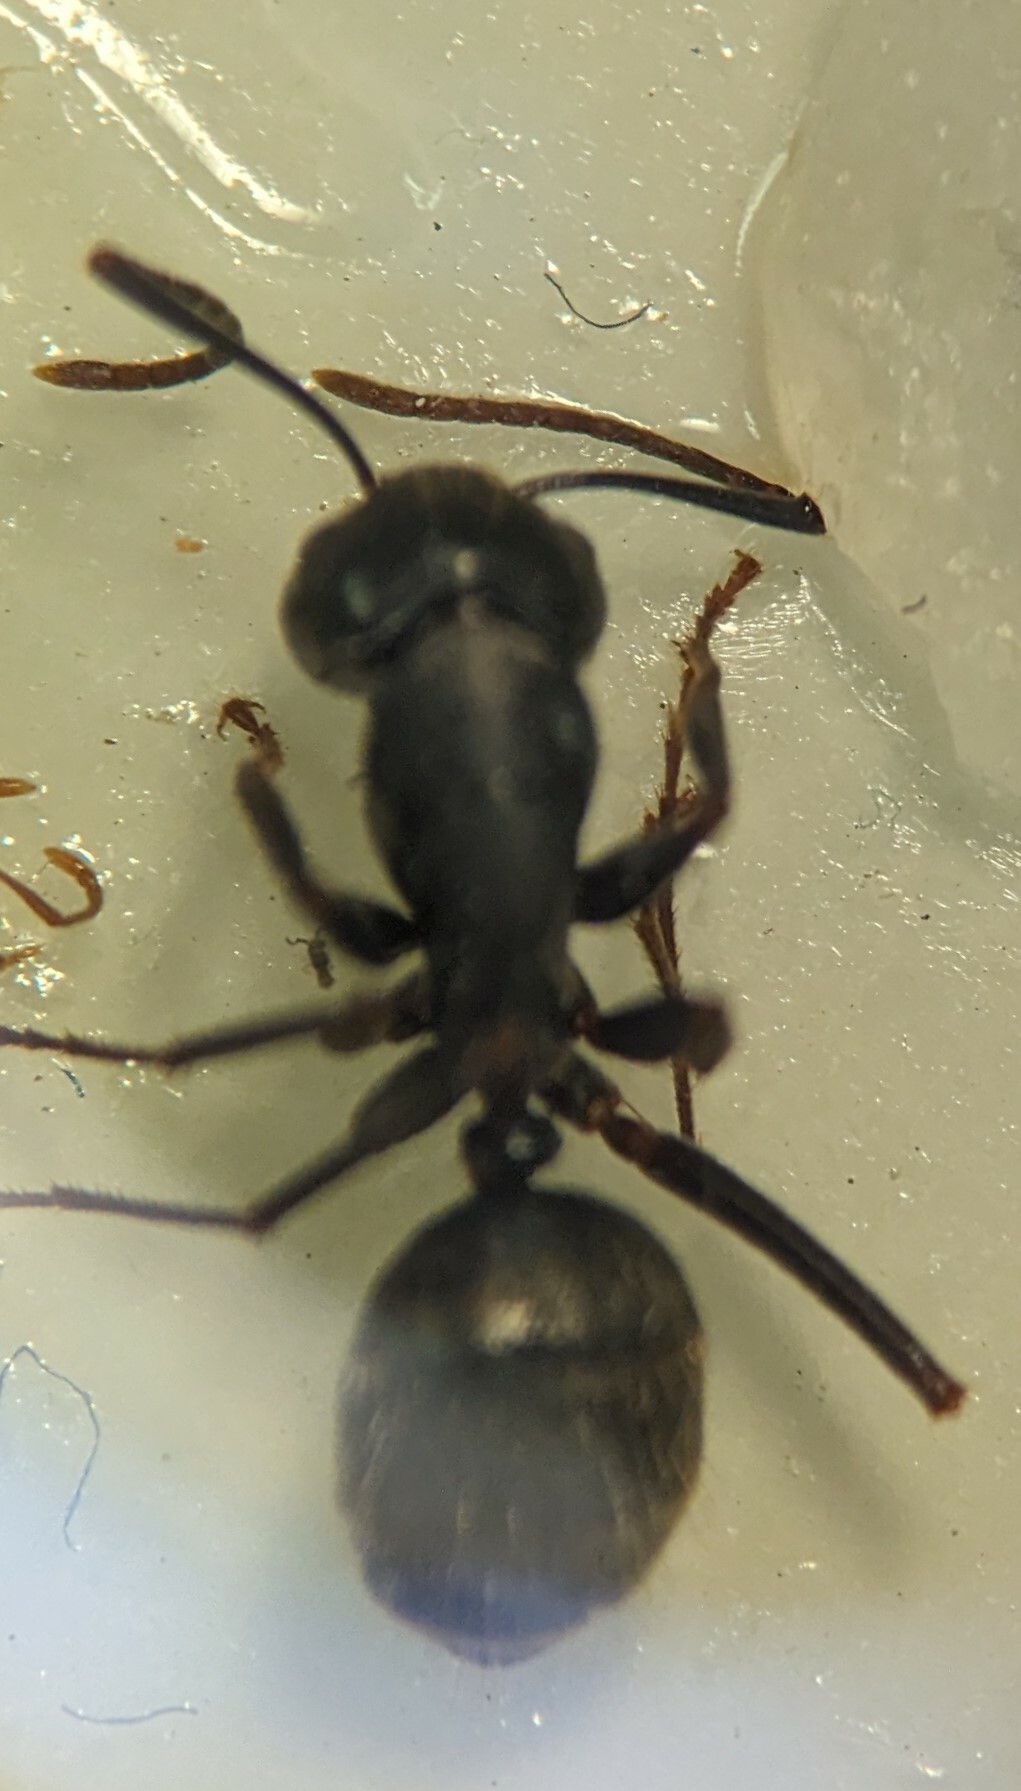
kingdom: Animalia
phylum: Arthropoda
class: Insecta
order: Hymenoptera
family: Formicidae
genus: Camponotus
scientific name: Camponotus pennsylvanicus
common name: Black carpenter ant
